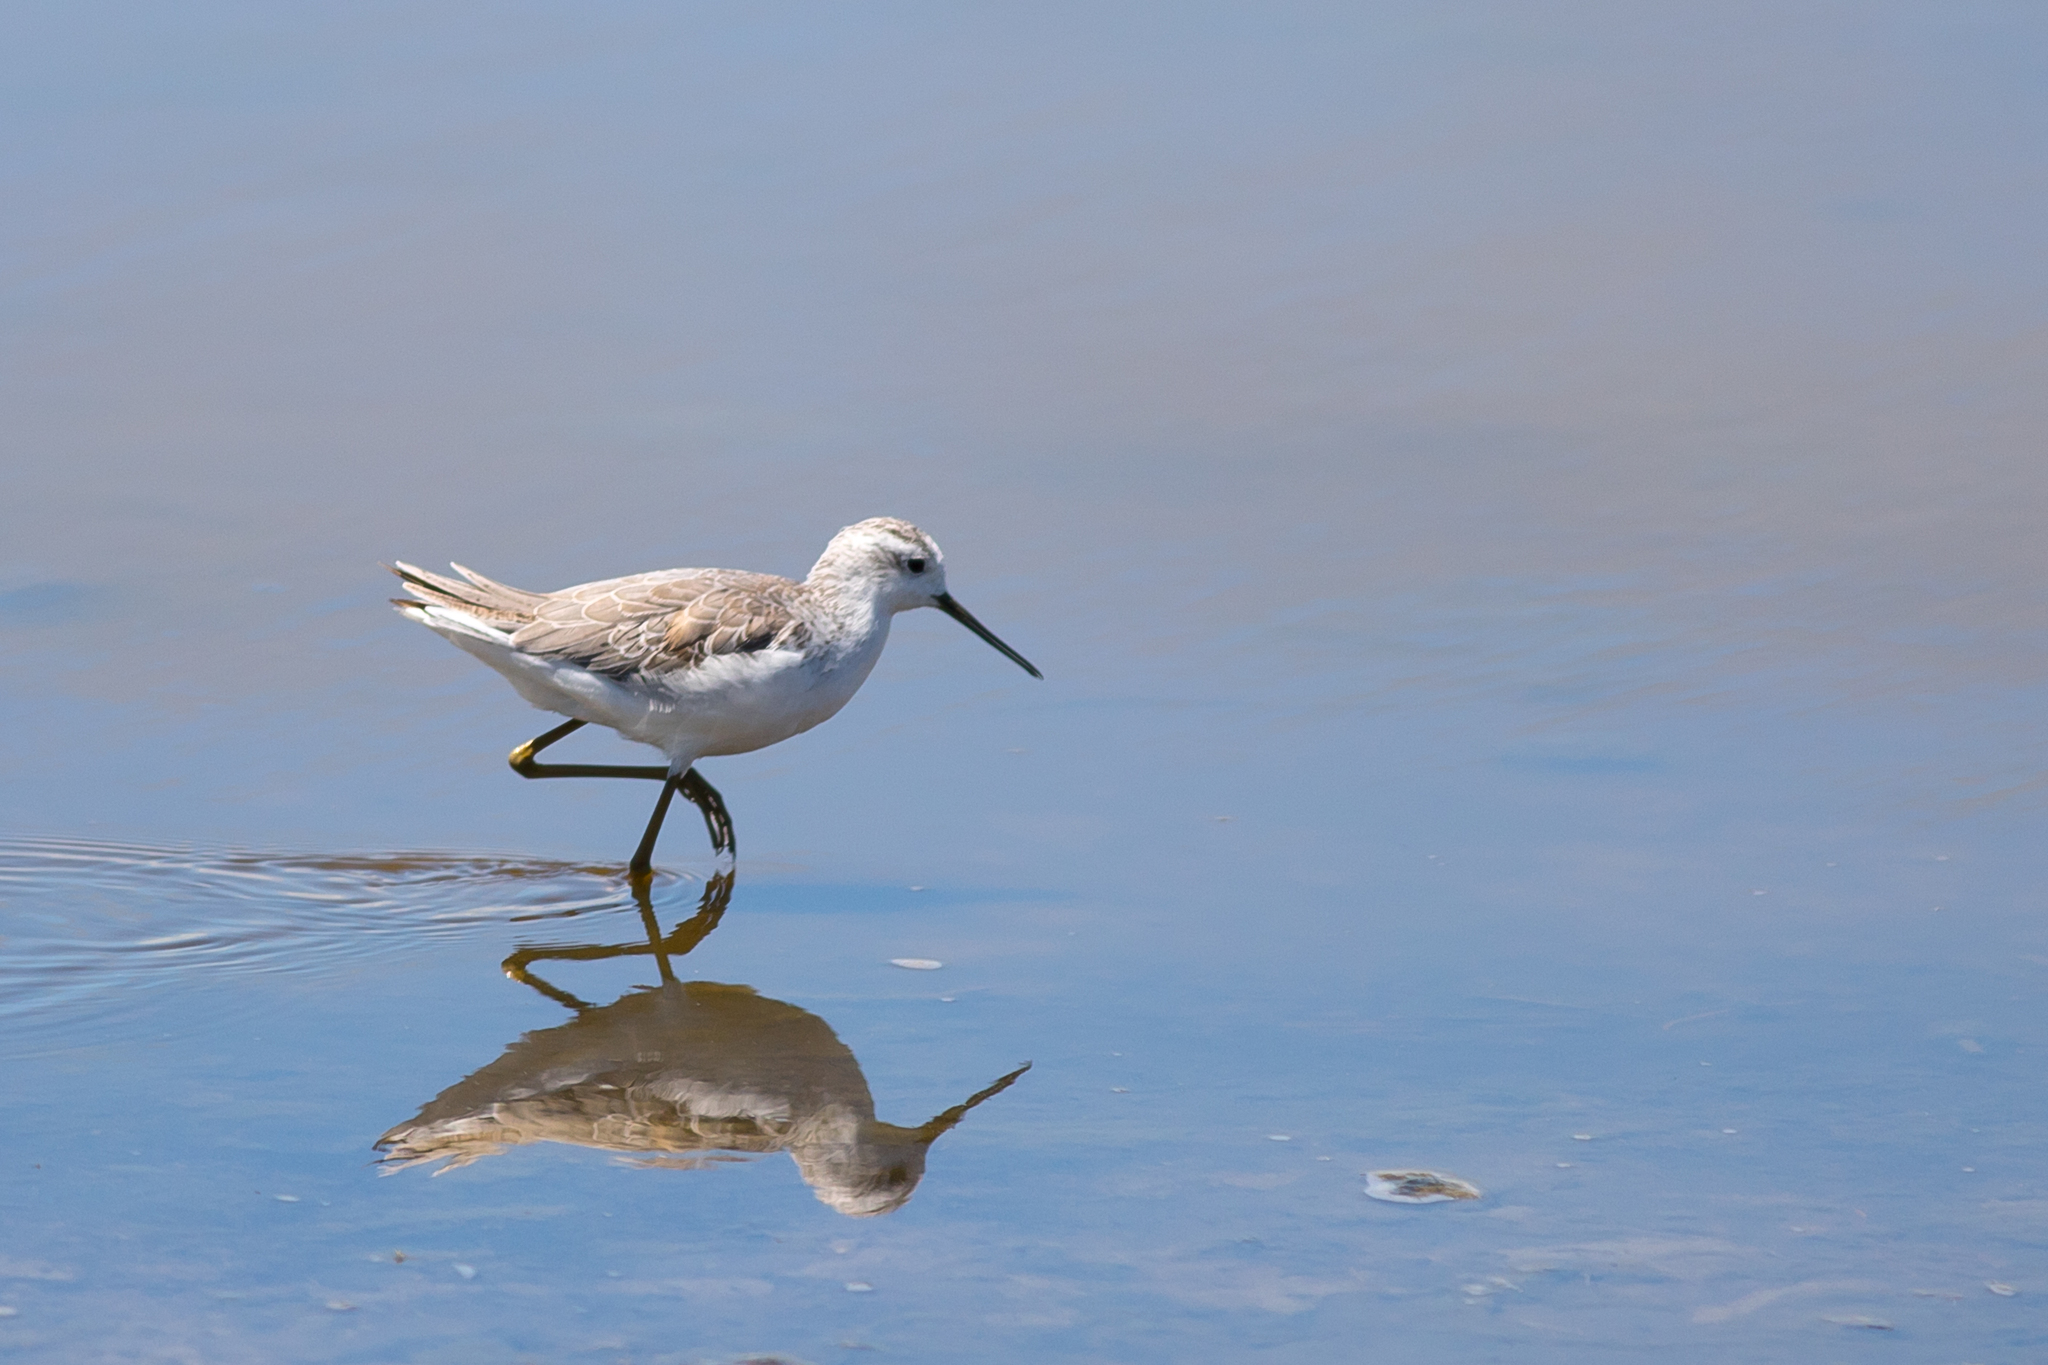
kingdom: Animalia
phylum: Chordata
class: Aves
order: Charadriiformes
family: Scolopacidae
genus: Tringa
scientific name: Tringa nebularia
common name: Common greenshank
